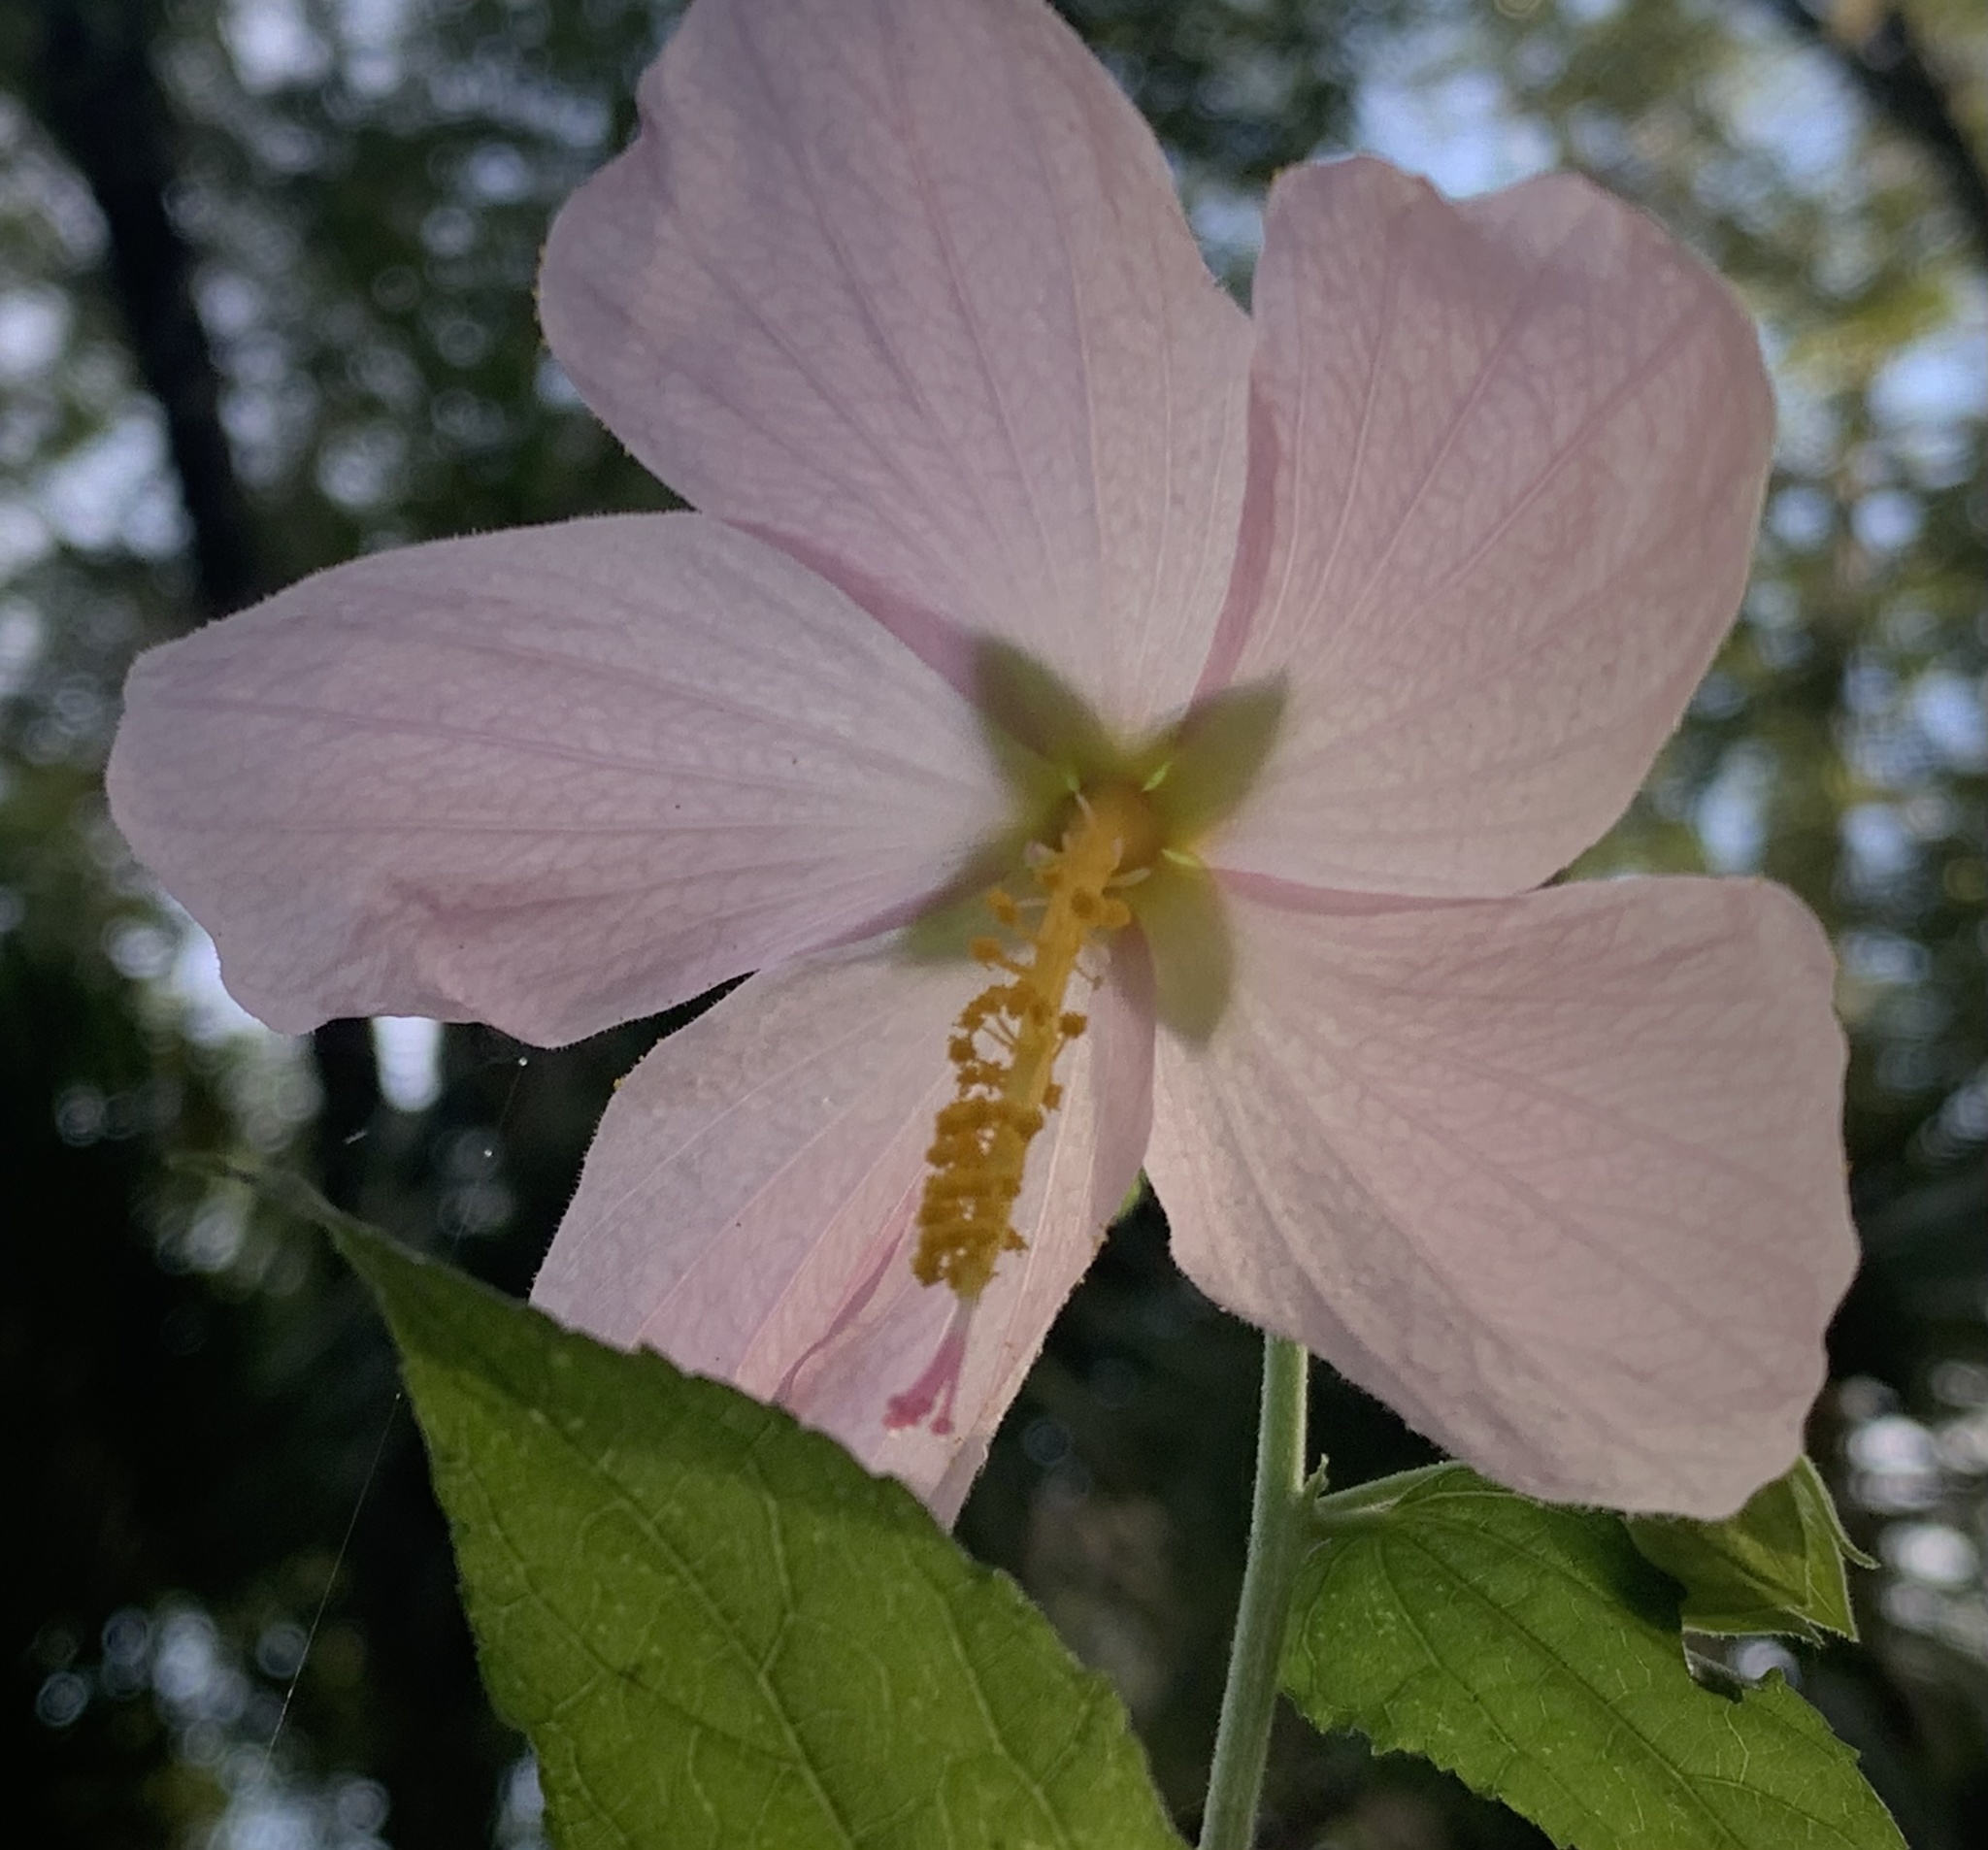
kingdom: Plantae
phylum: Tracheophyta
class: Magnoliopsida
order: Malvales
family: Malvaceae
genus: Kosteletzkya
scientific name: Kosteletzkya pentacarpos
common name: Virginia saltmarsh mallow
